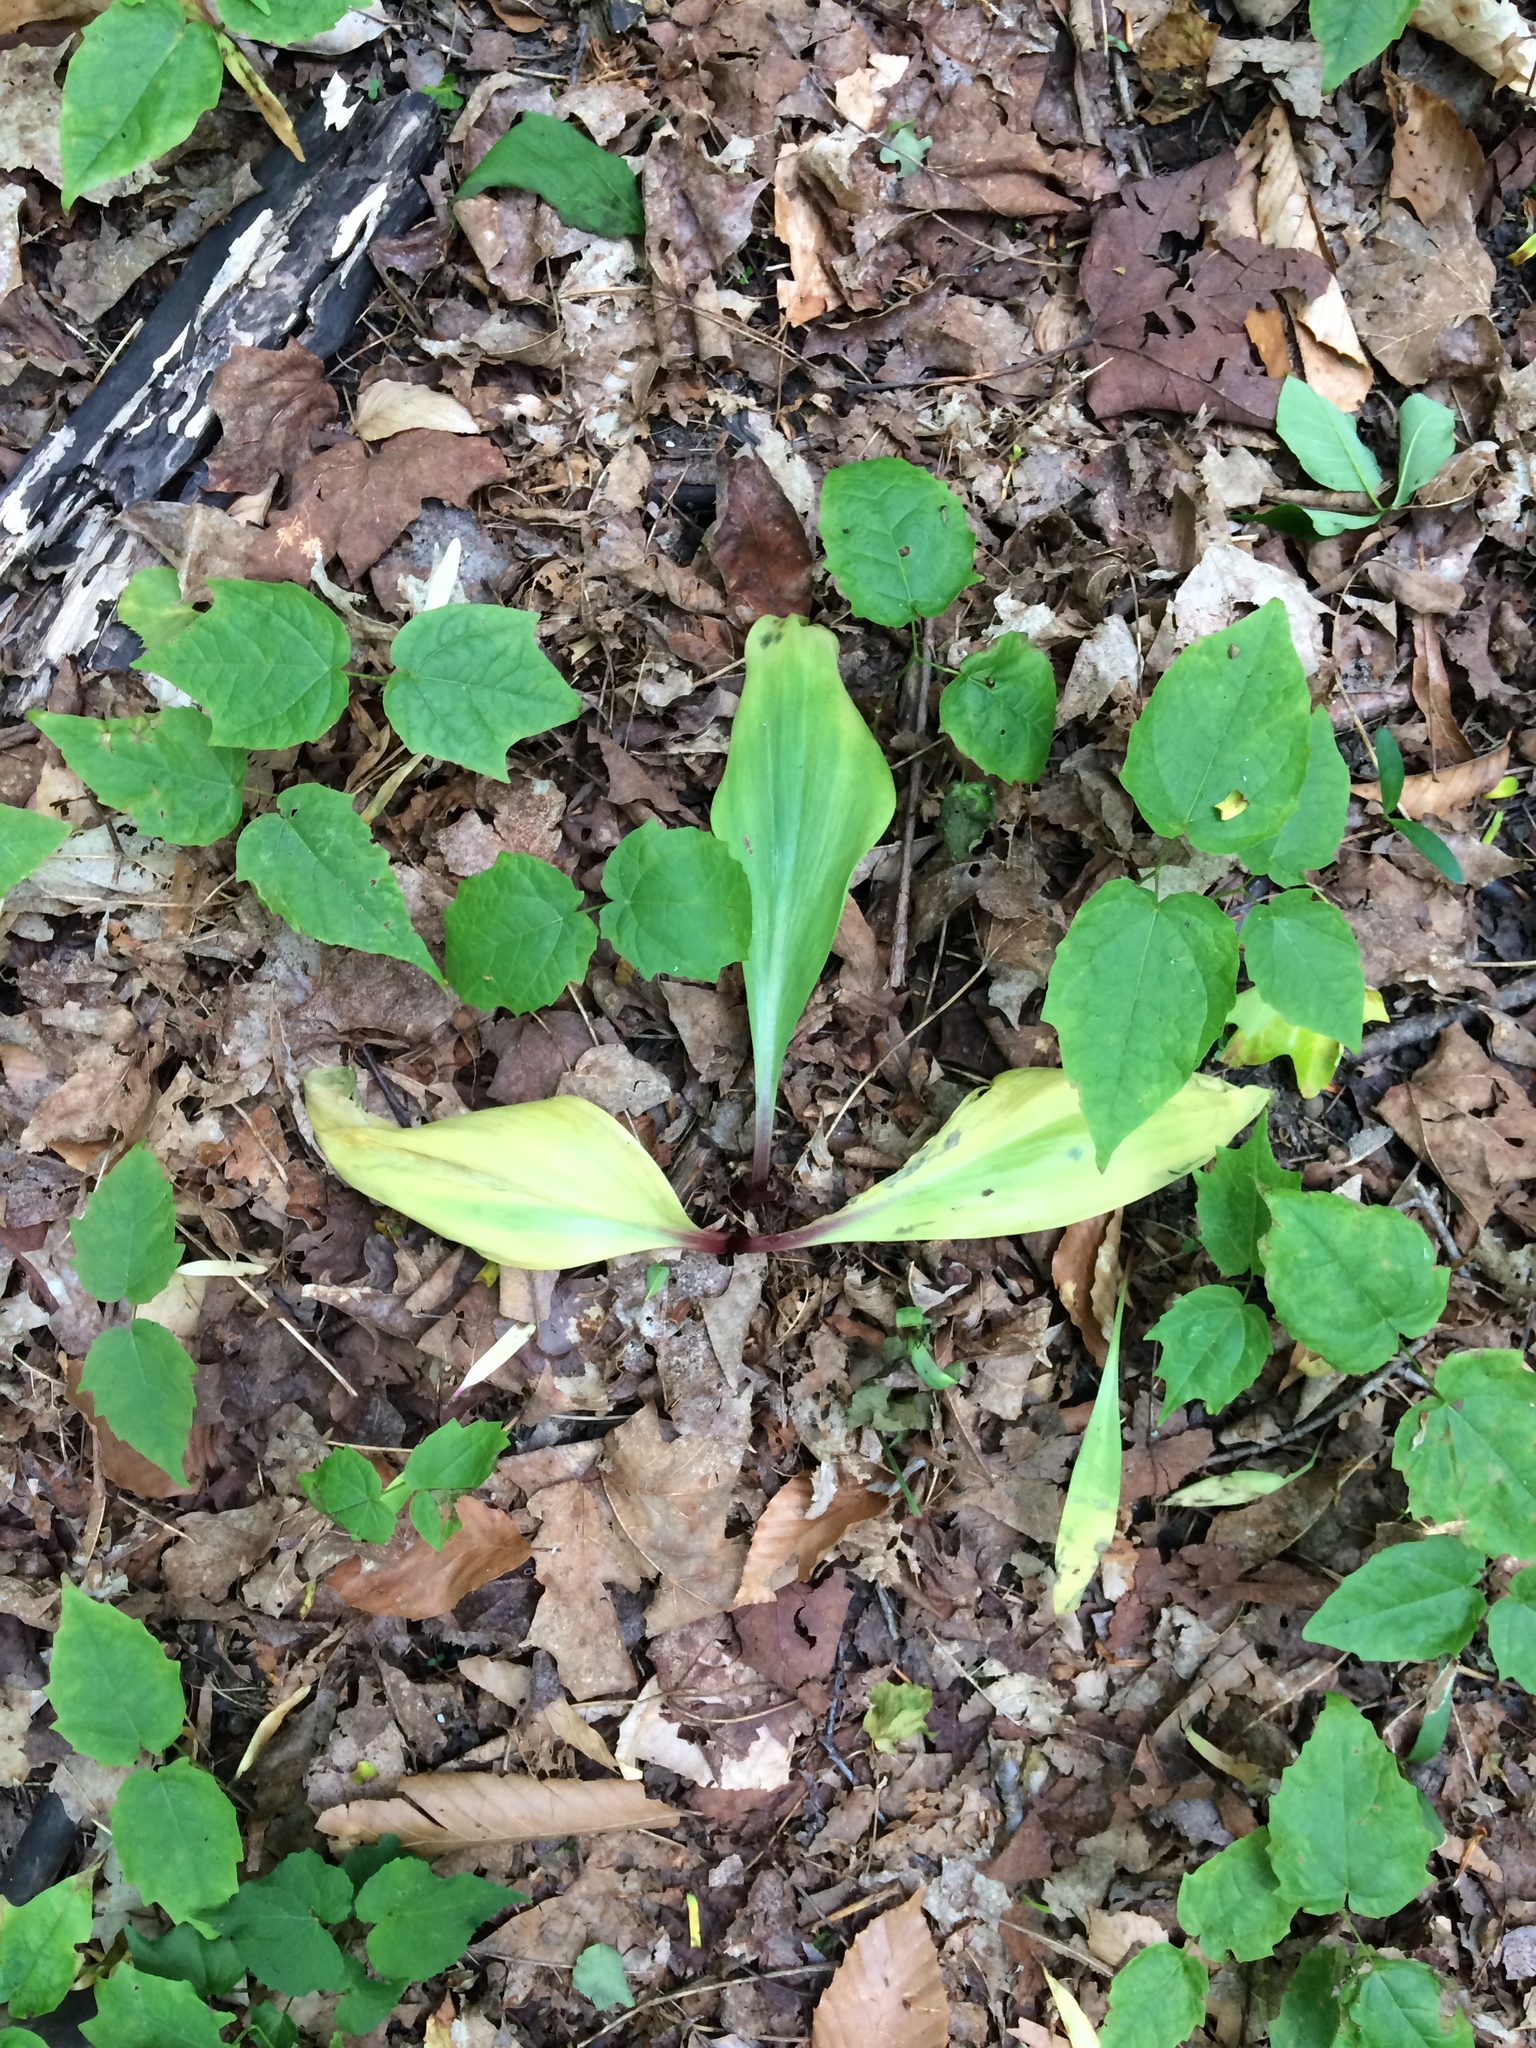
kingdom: Plantae
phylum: Tracheophyta
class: Liliopsida
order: Asparagales
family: Amaryllidaceae
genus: Allium
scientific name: Allium tricoccum
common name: Ramp
